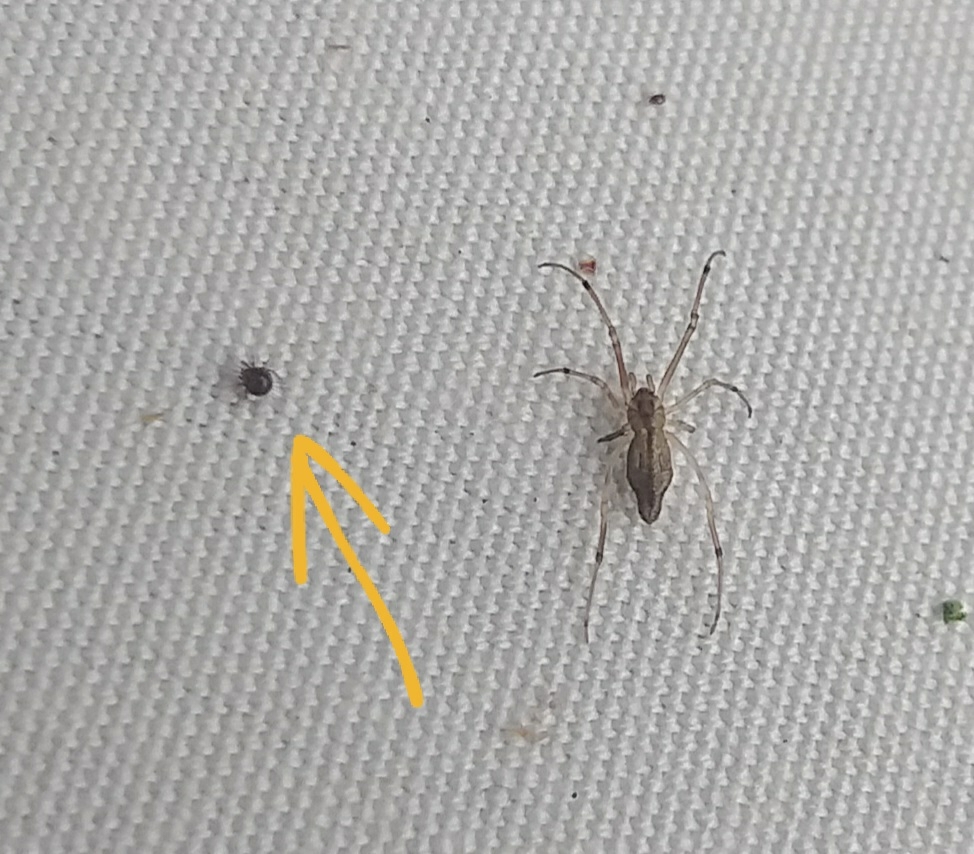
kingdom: Animalia
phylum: Arthropoda
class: Arachnida
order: Sarcoptiformes
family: Caloppiidae
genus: Neotrichozetes
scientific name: Neotrichozetes spinulosus
